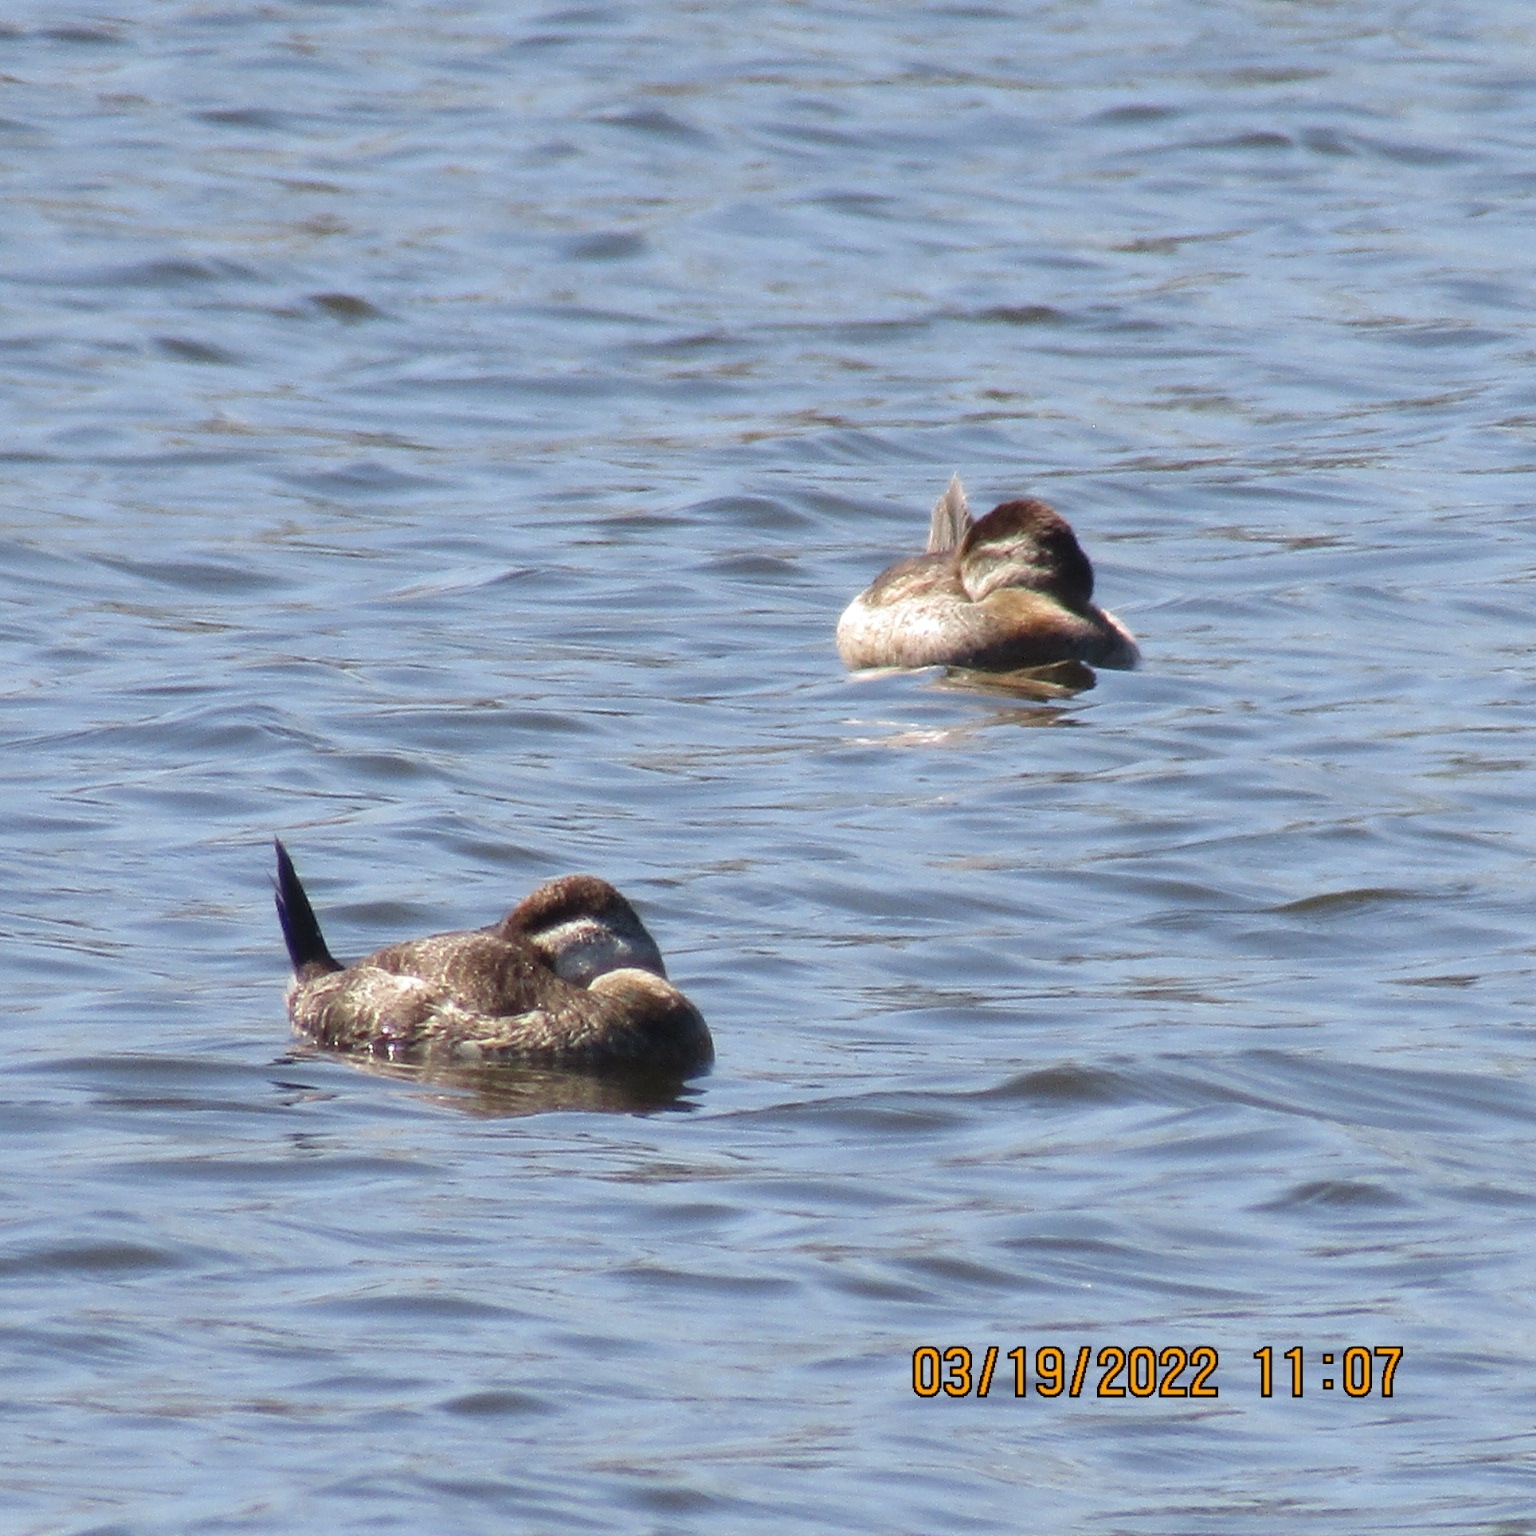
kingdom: Animalia
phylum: Chordata
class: Aves
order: Anseriformes
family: Anatidae
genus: Oxyura
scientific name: Oxyura jamaicensis
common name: Ruddy duck
